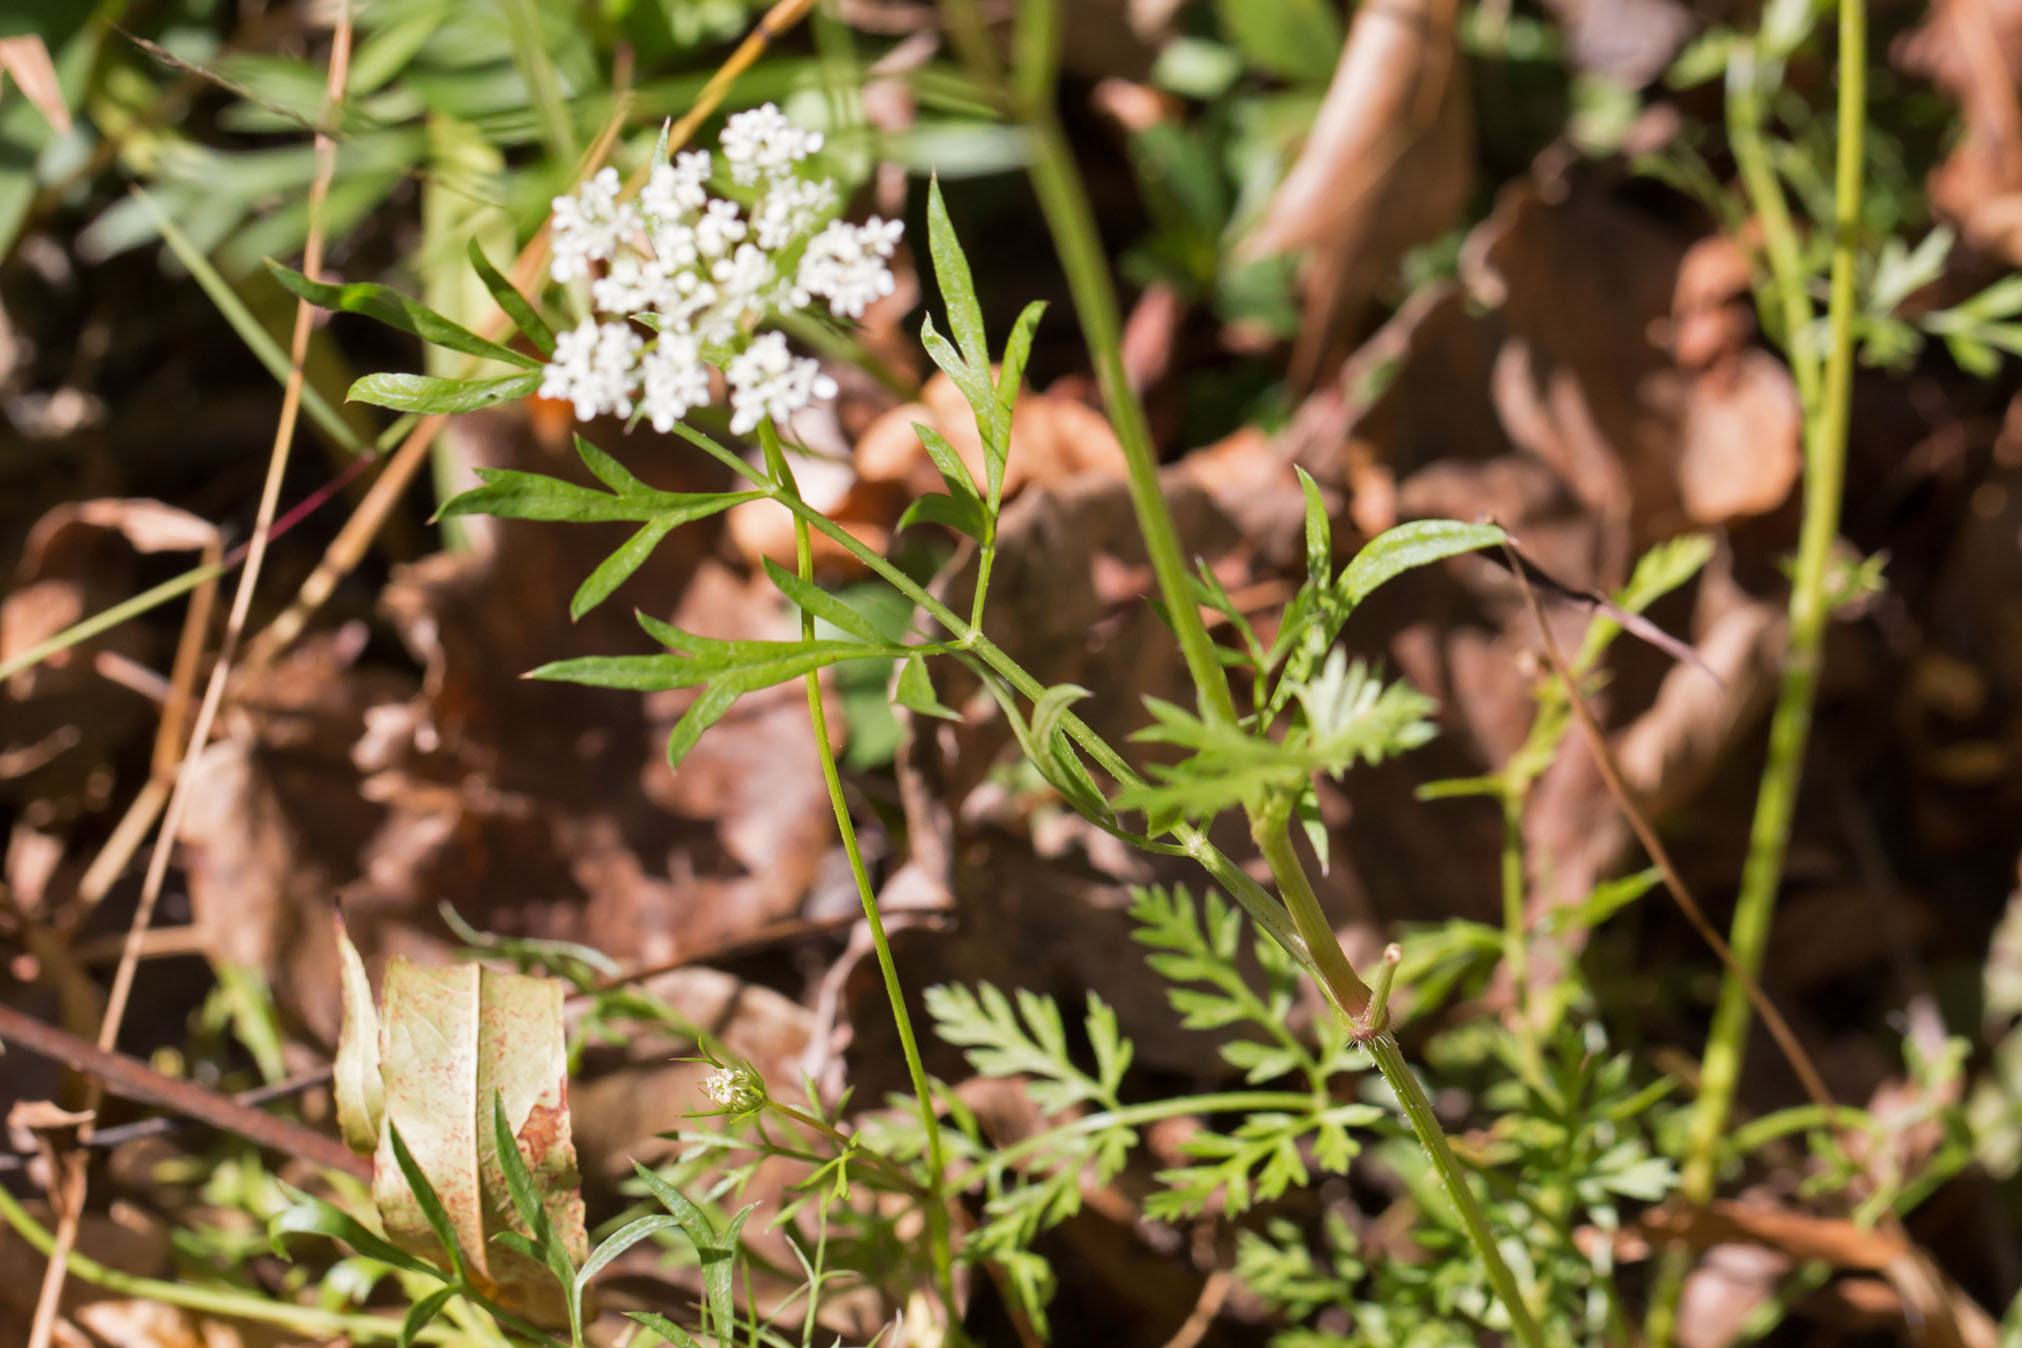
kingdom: Plantae
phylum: Tracheophyta
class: Magnoliopsida
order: Apiales
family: Apiaceae
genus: Daucus
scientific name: Daucus carota
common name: Wild carrot
